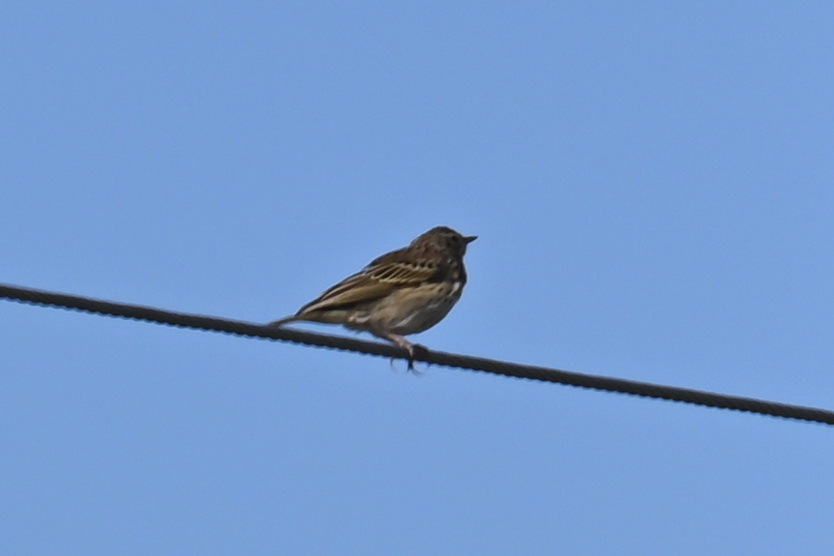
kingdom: Animalia
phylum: Chordata
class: Aves
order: Passeriformes
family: Motacillidae
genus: Anthus
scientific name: Anthus trivialis
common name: Tree pipit
